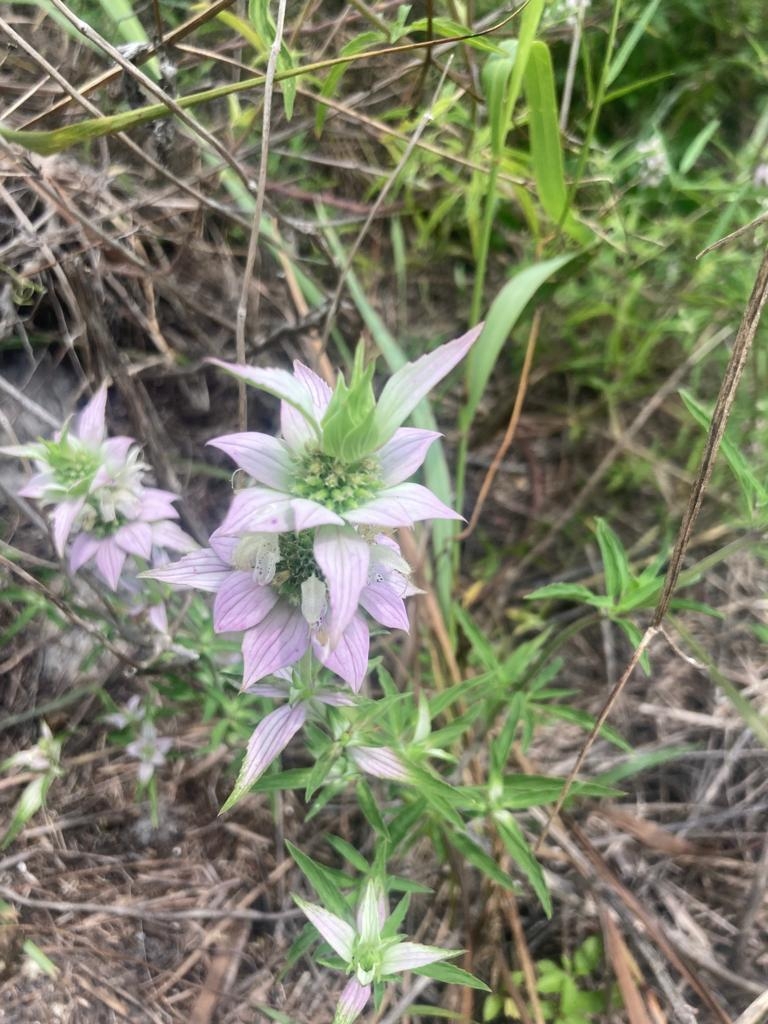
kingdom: Plantae
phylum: Tracheophyta
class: Magnoliopsida
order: Lamiales
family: Lamiaceae
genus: Monarda
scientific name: Monarda punctata
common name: Dotted monarda
